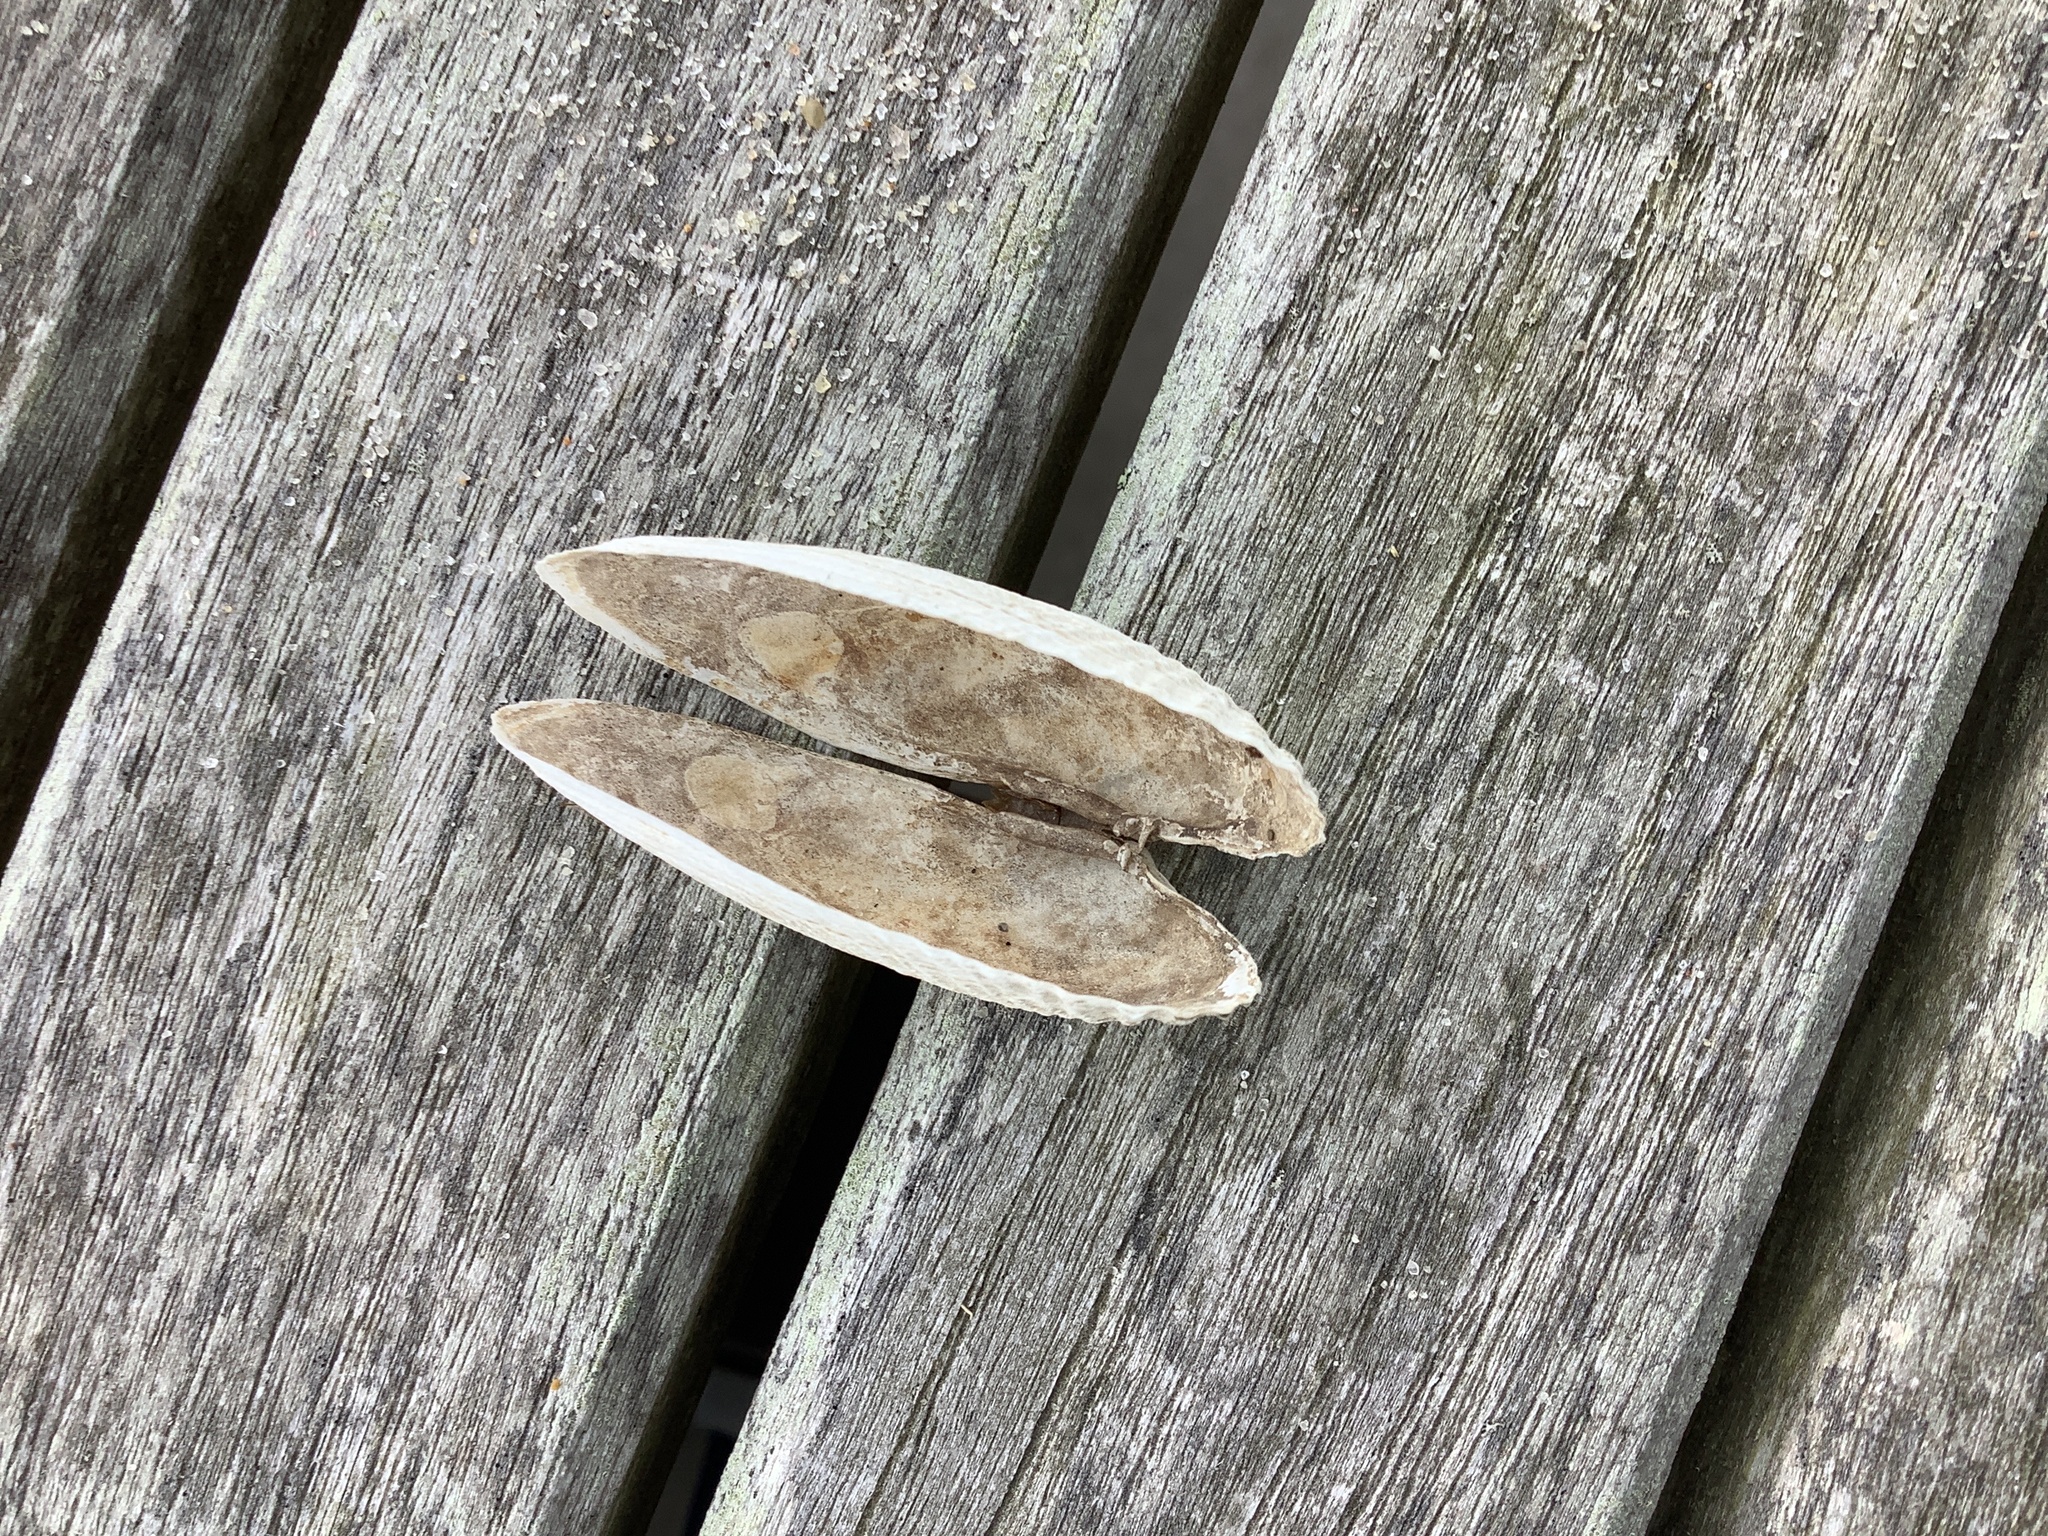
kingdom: Animalia
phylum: Mollusca
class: Bivalvia
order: Venerida
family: Veneridae
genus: Petricolaria
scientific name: Petricolaria pholadiformis
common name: American piddock
